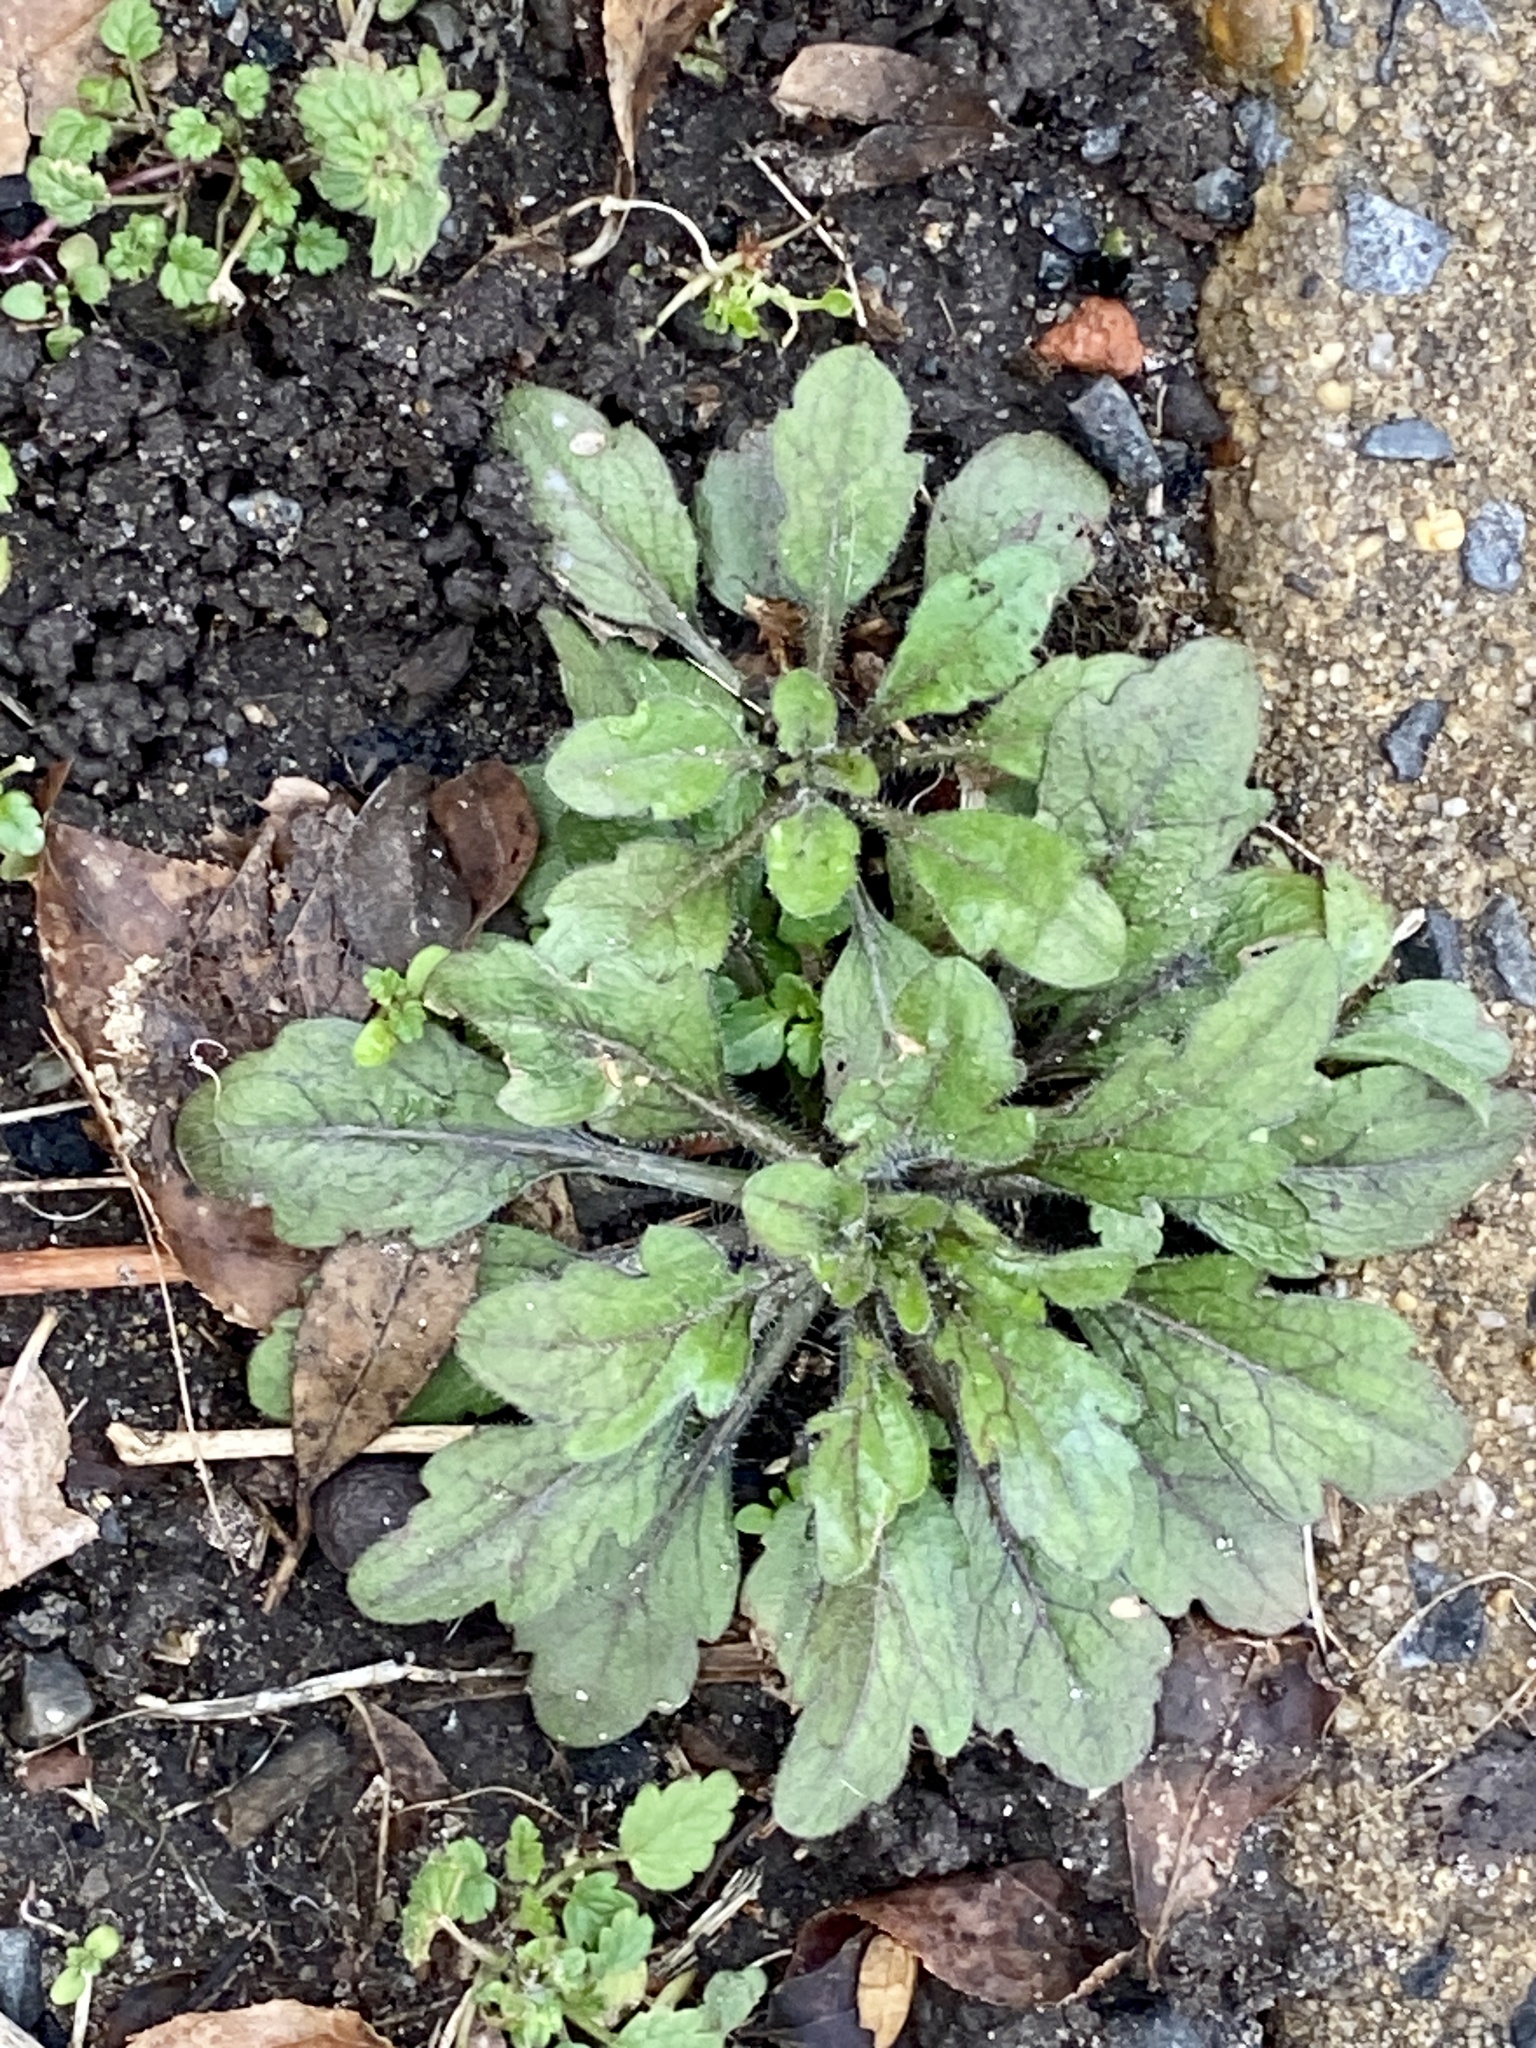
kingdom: Plantae
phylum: Tracheophyta
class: Magnoliopsida
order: Asterales
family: Asteraceae
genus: Erigeron
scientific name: Erigeron canadensis
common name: Canadian fleabane
